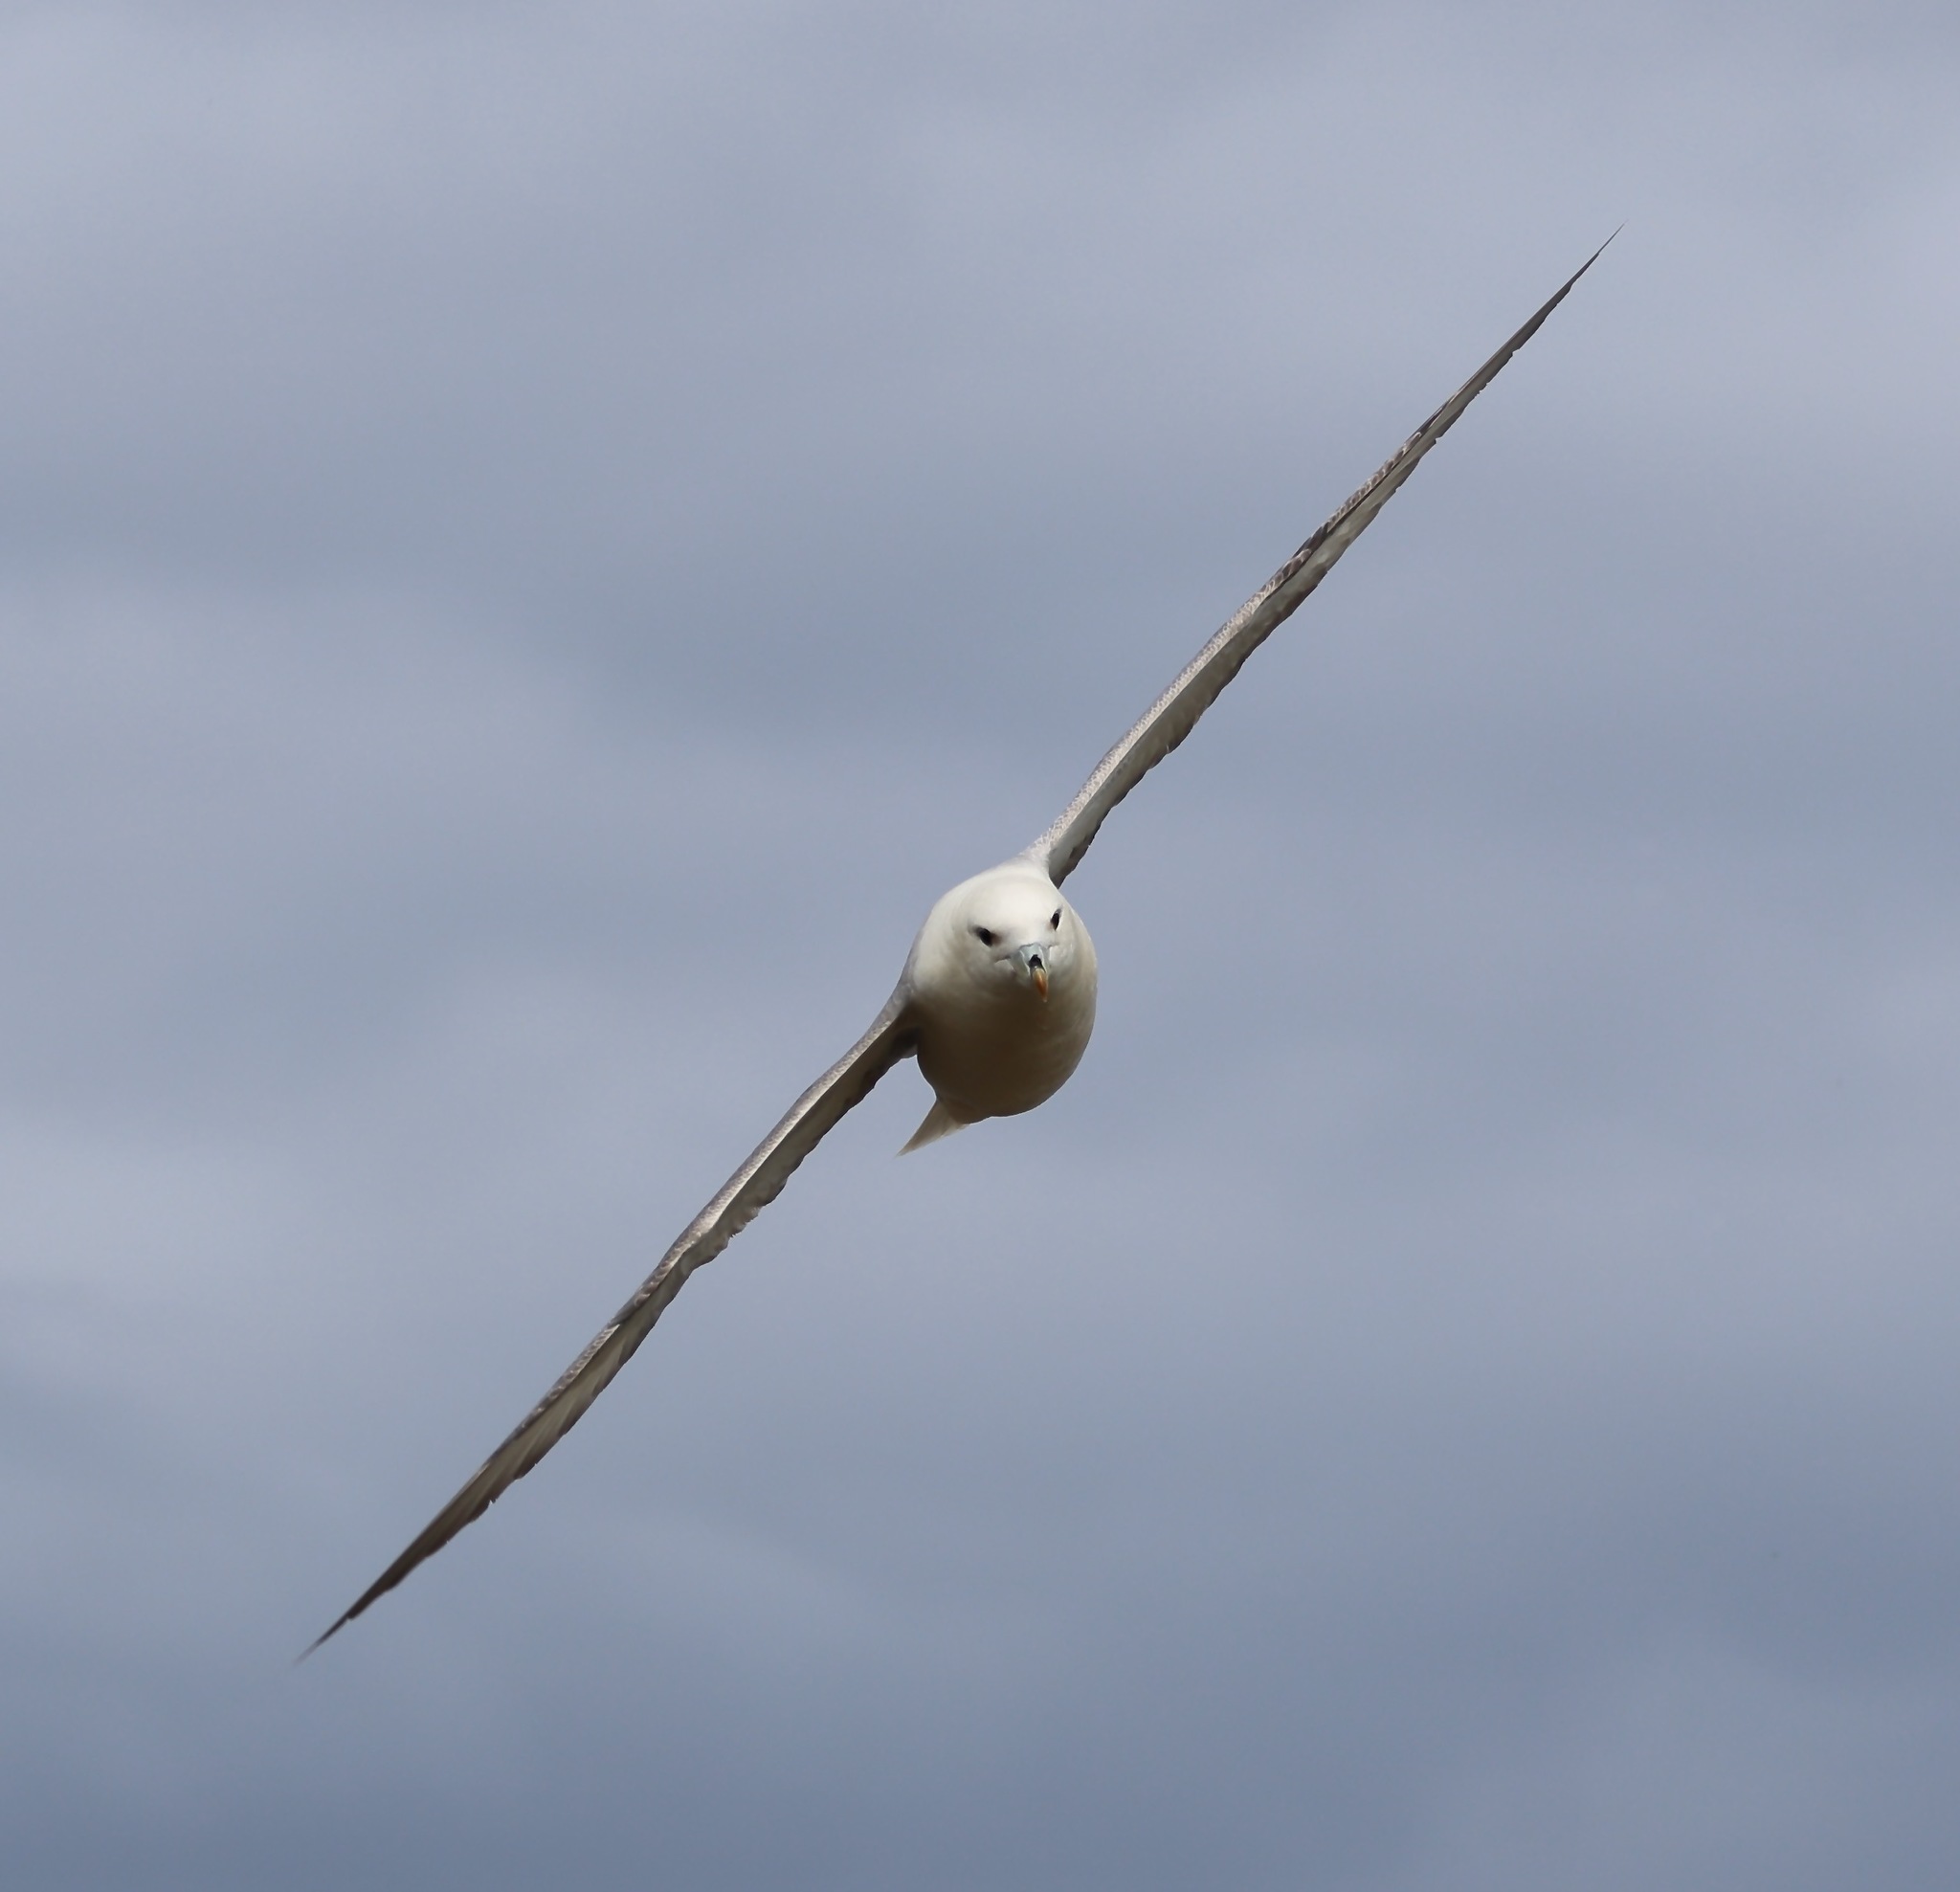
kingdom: Animalia
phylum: Chordata
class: Aves
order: Procellariiformes
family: Procellariidae
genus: Fulmarus
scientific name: Fulmarus glacialis
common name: Northern fulmar
